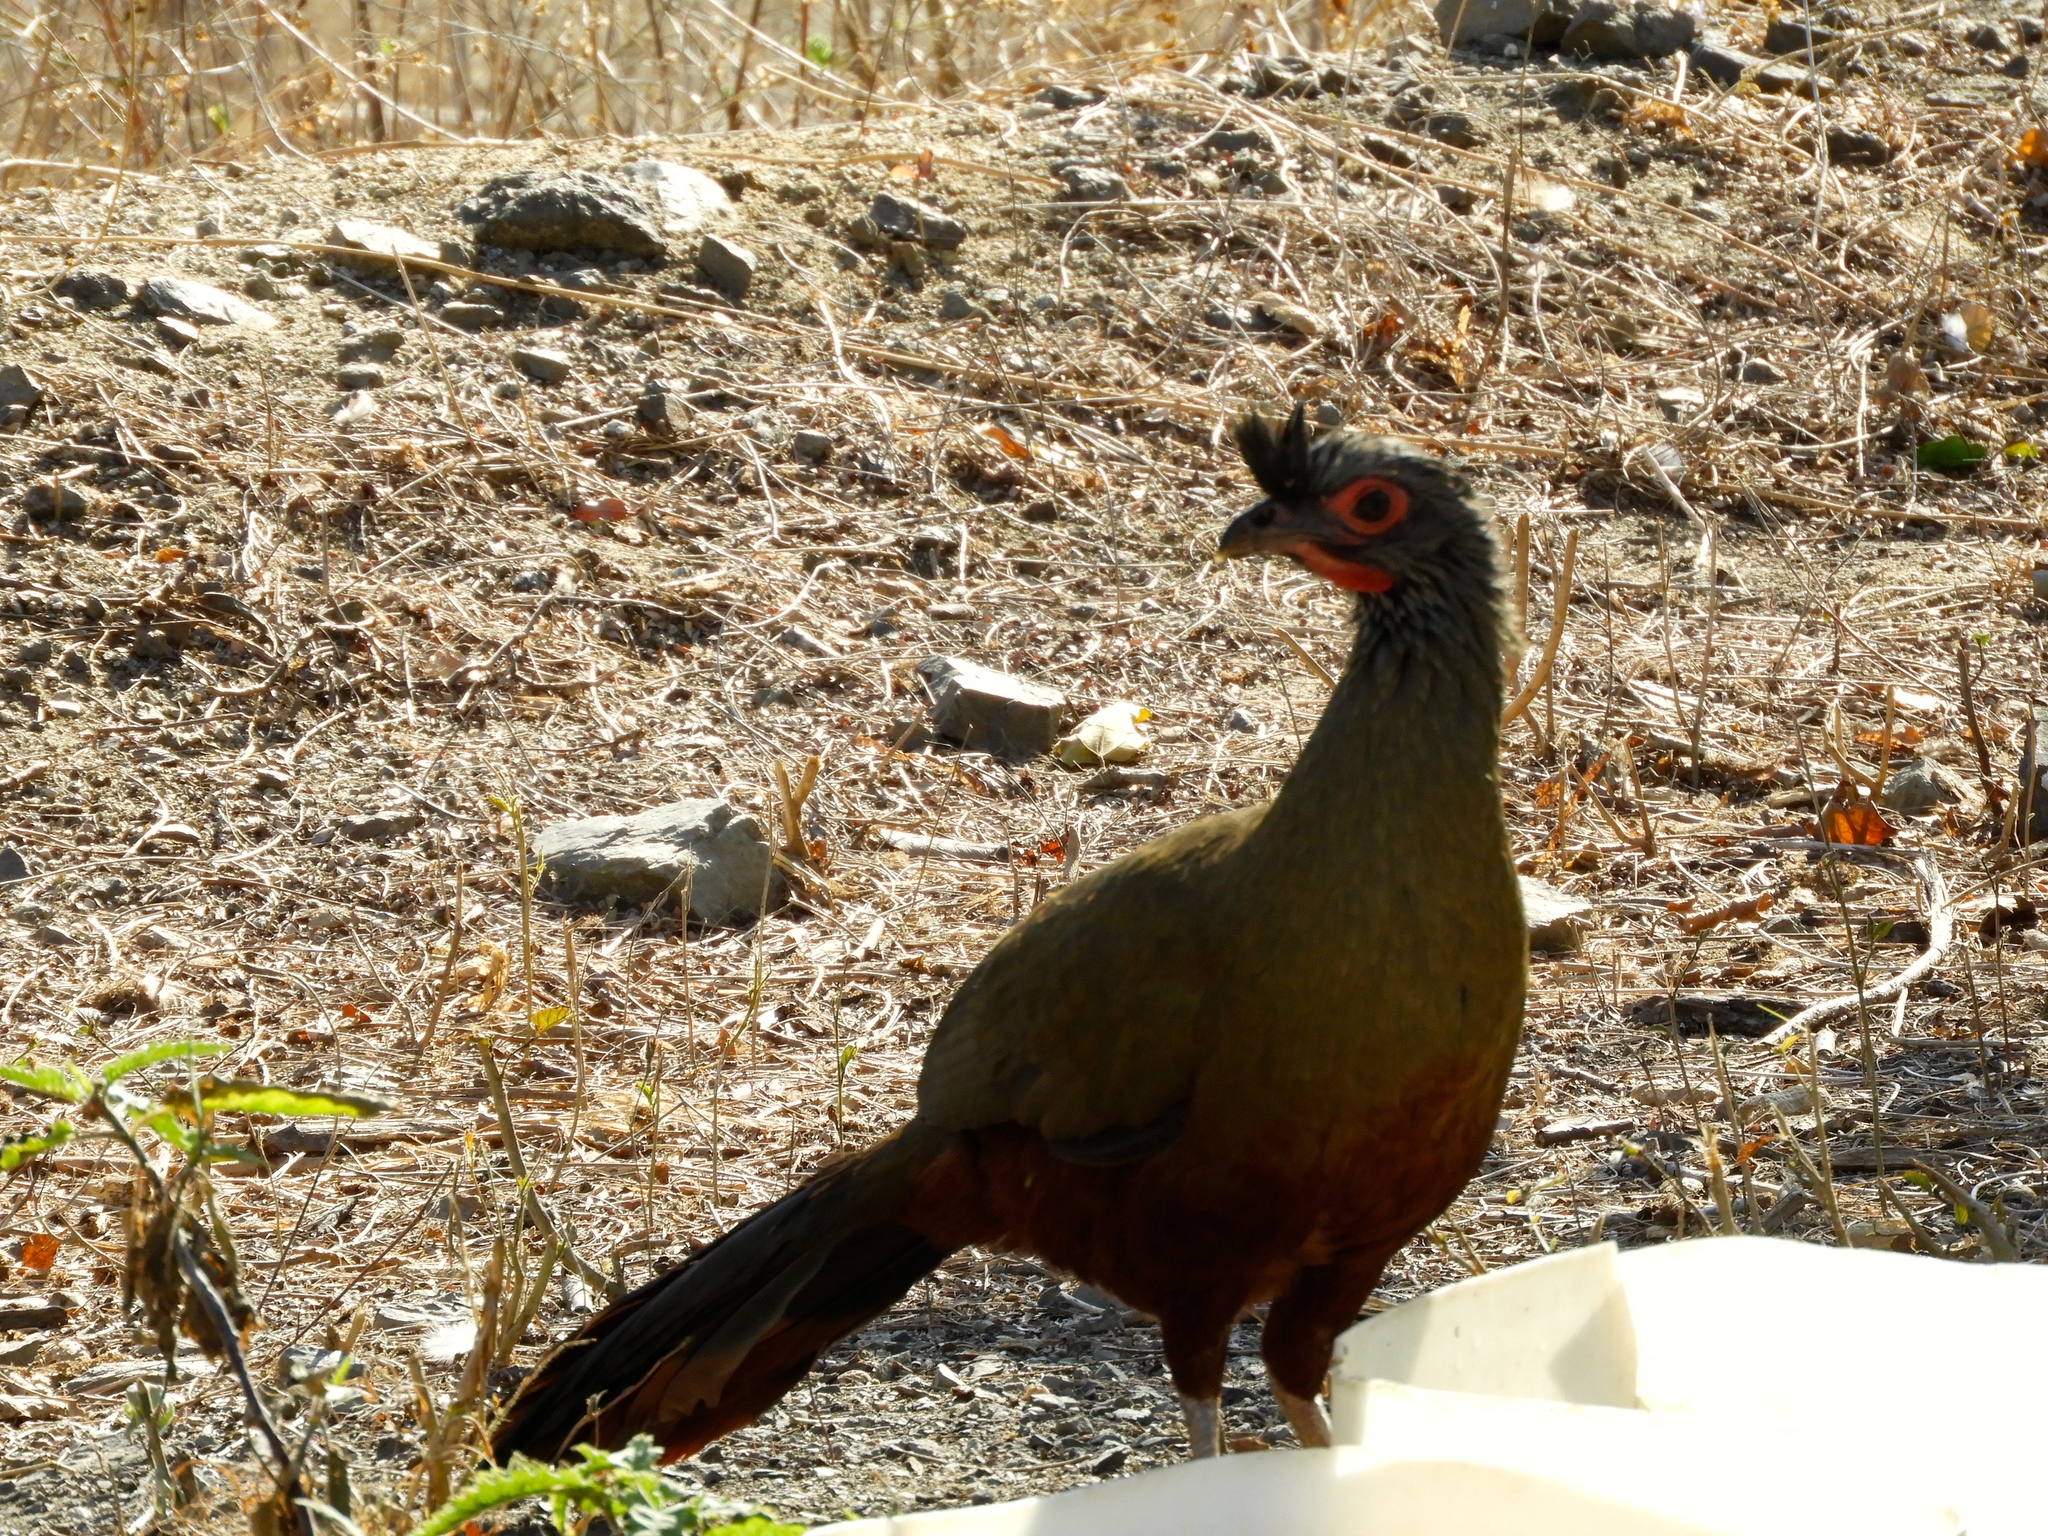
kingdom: Animalia
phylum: Chordata
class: Aves
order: Galliformes
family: Cracidae
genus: Ortalis
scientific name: Ortalis wagleri
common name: Rufous-bellied chachalaca
